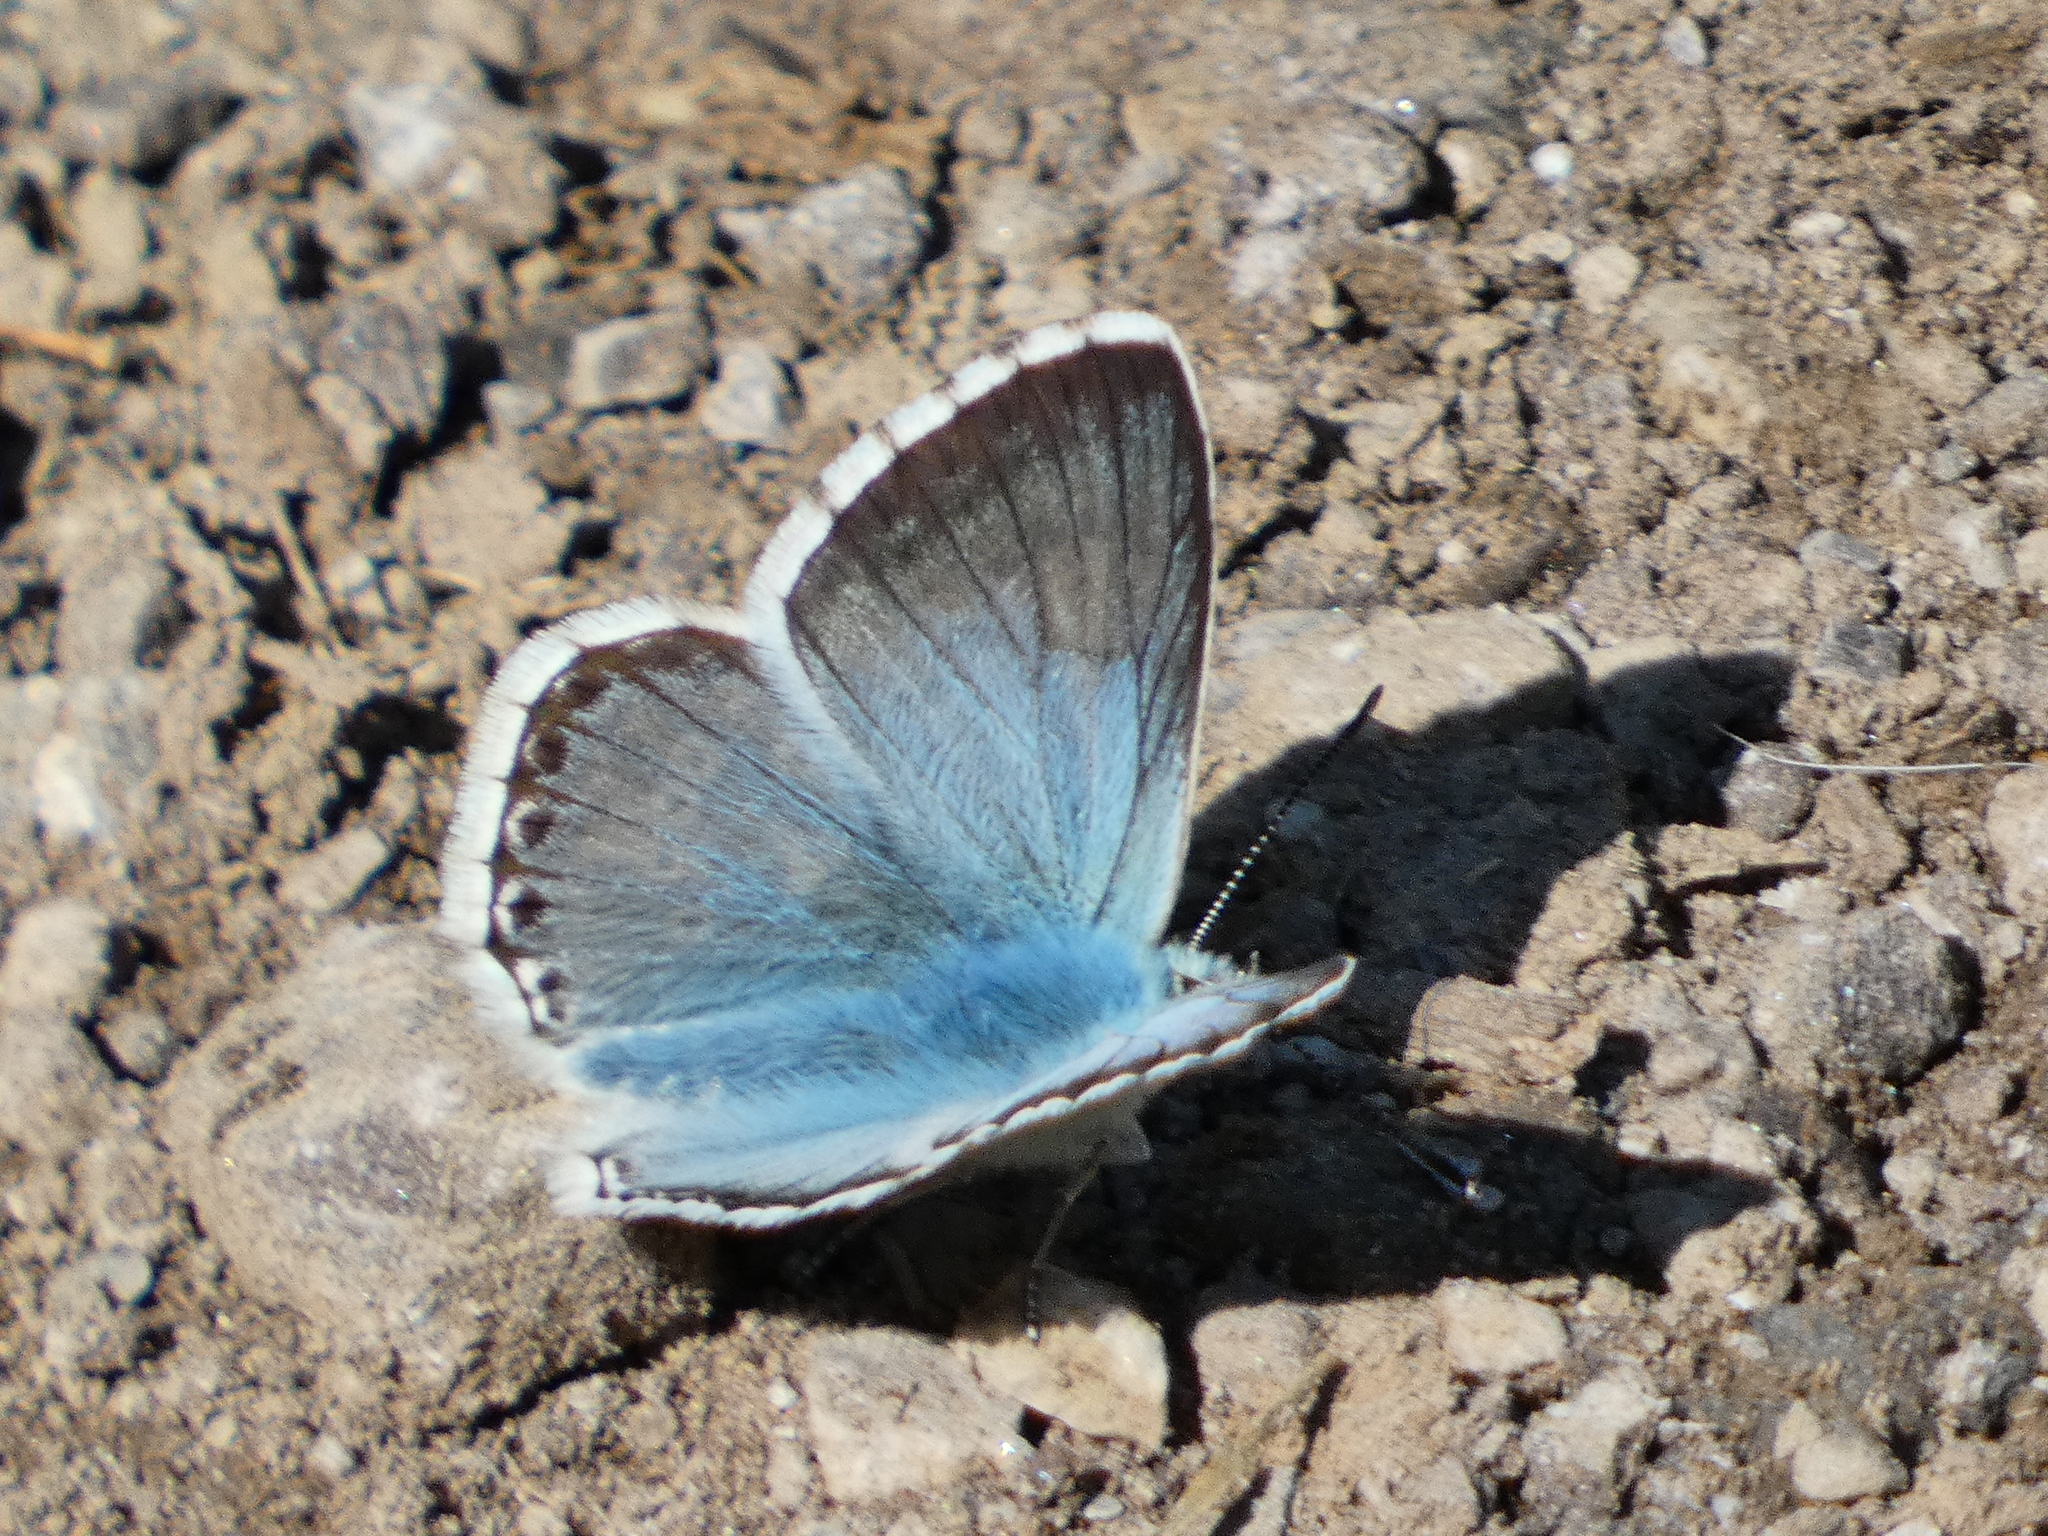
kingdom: Animalia
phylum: Arthropoda
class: Insecta
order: Lepidoptera
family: Lycaenidae
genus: Lysandra
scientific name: Lysandra coridon
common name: Chalkhill blue
